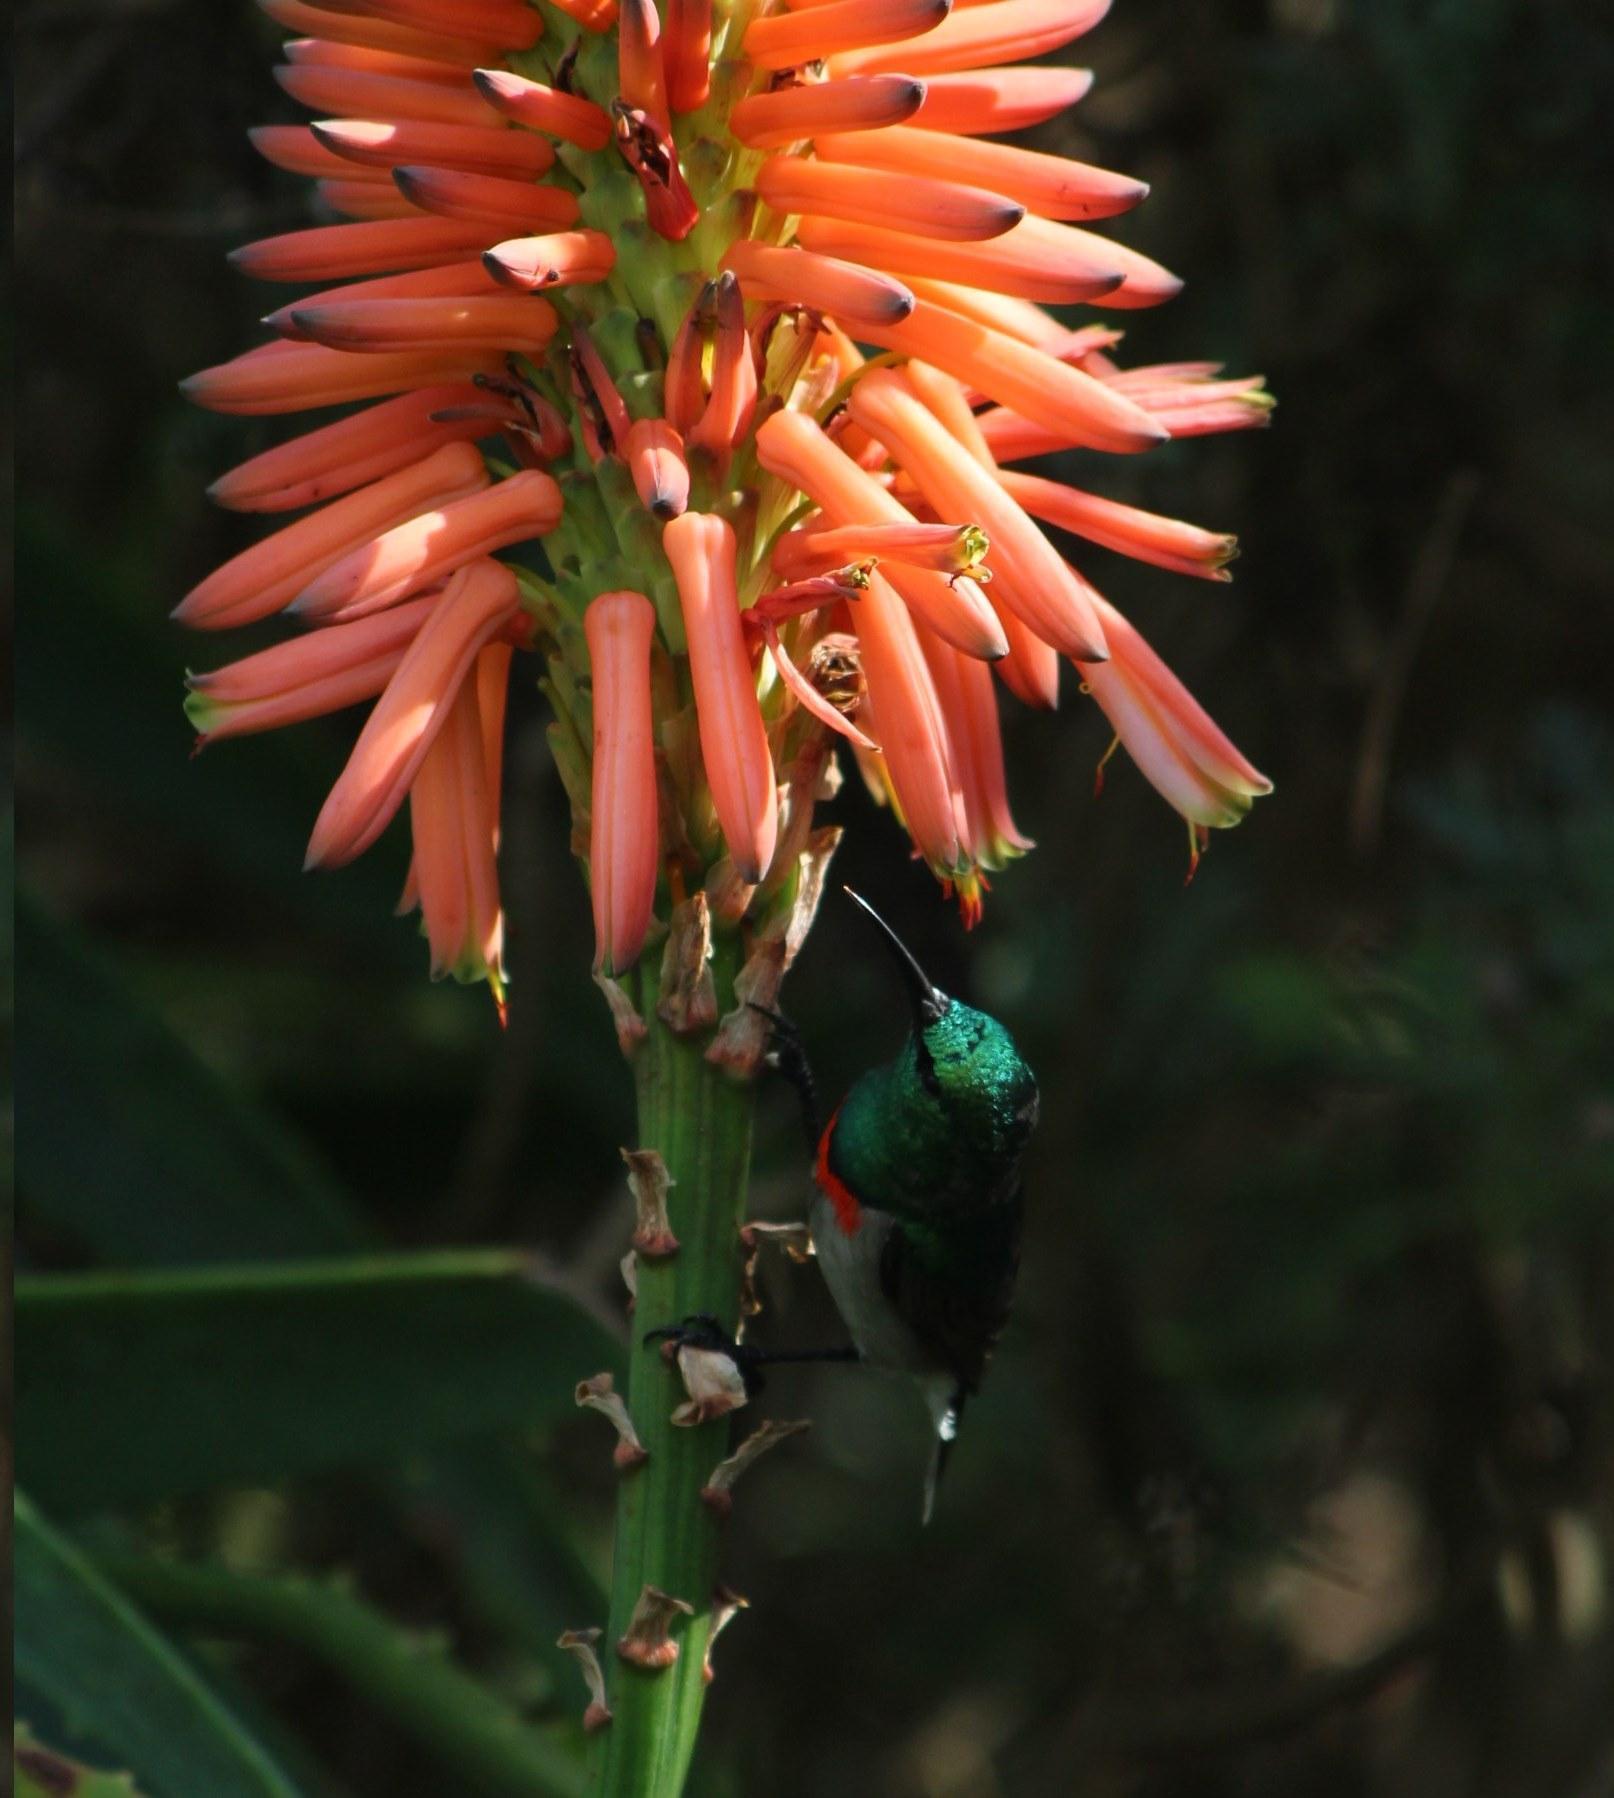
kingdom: Animalia
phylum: Chordata
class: Aves
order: Passeriformes
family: Nectariniidae
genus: Cinnyris
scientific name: Cinnyris chalybeus
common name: Southern double-collared sunbird
